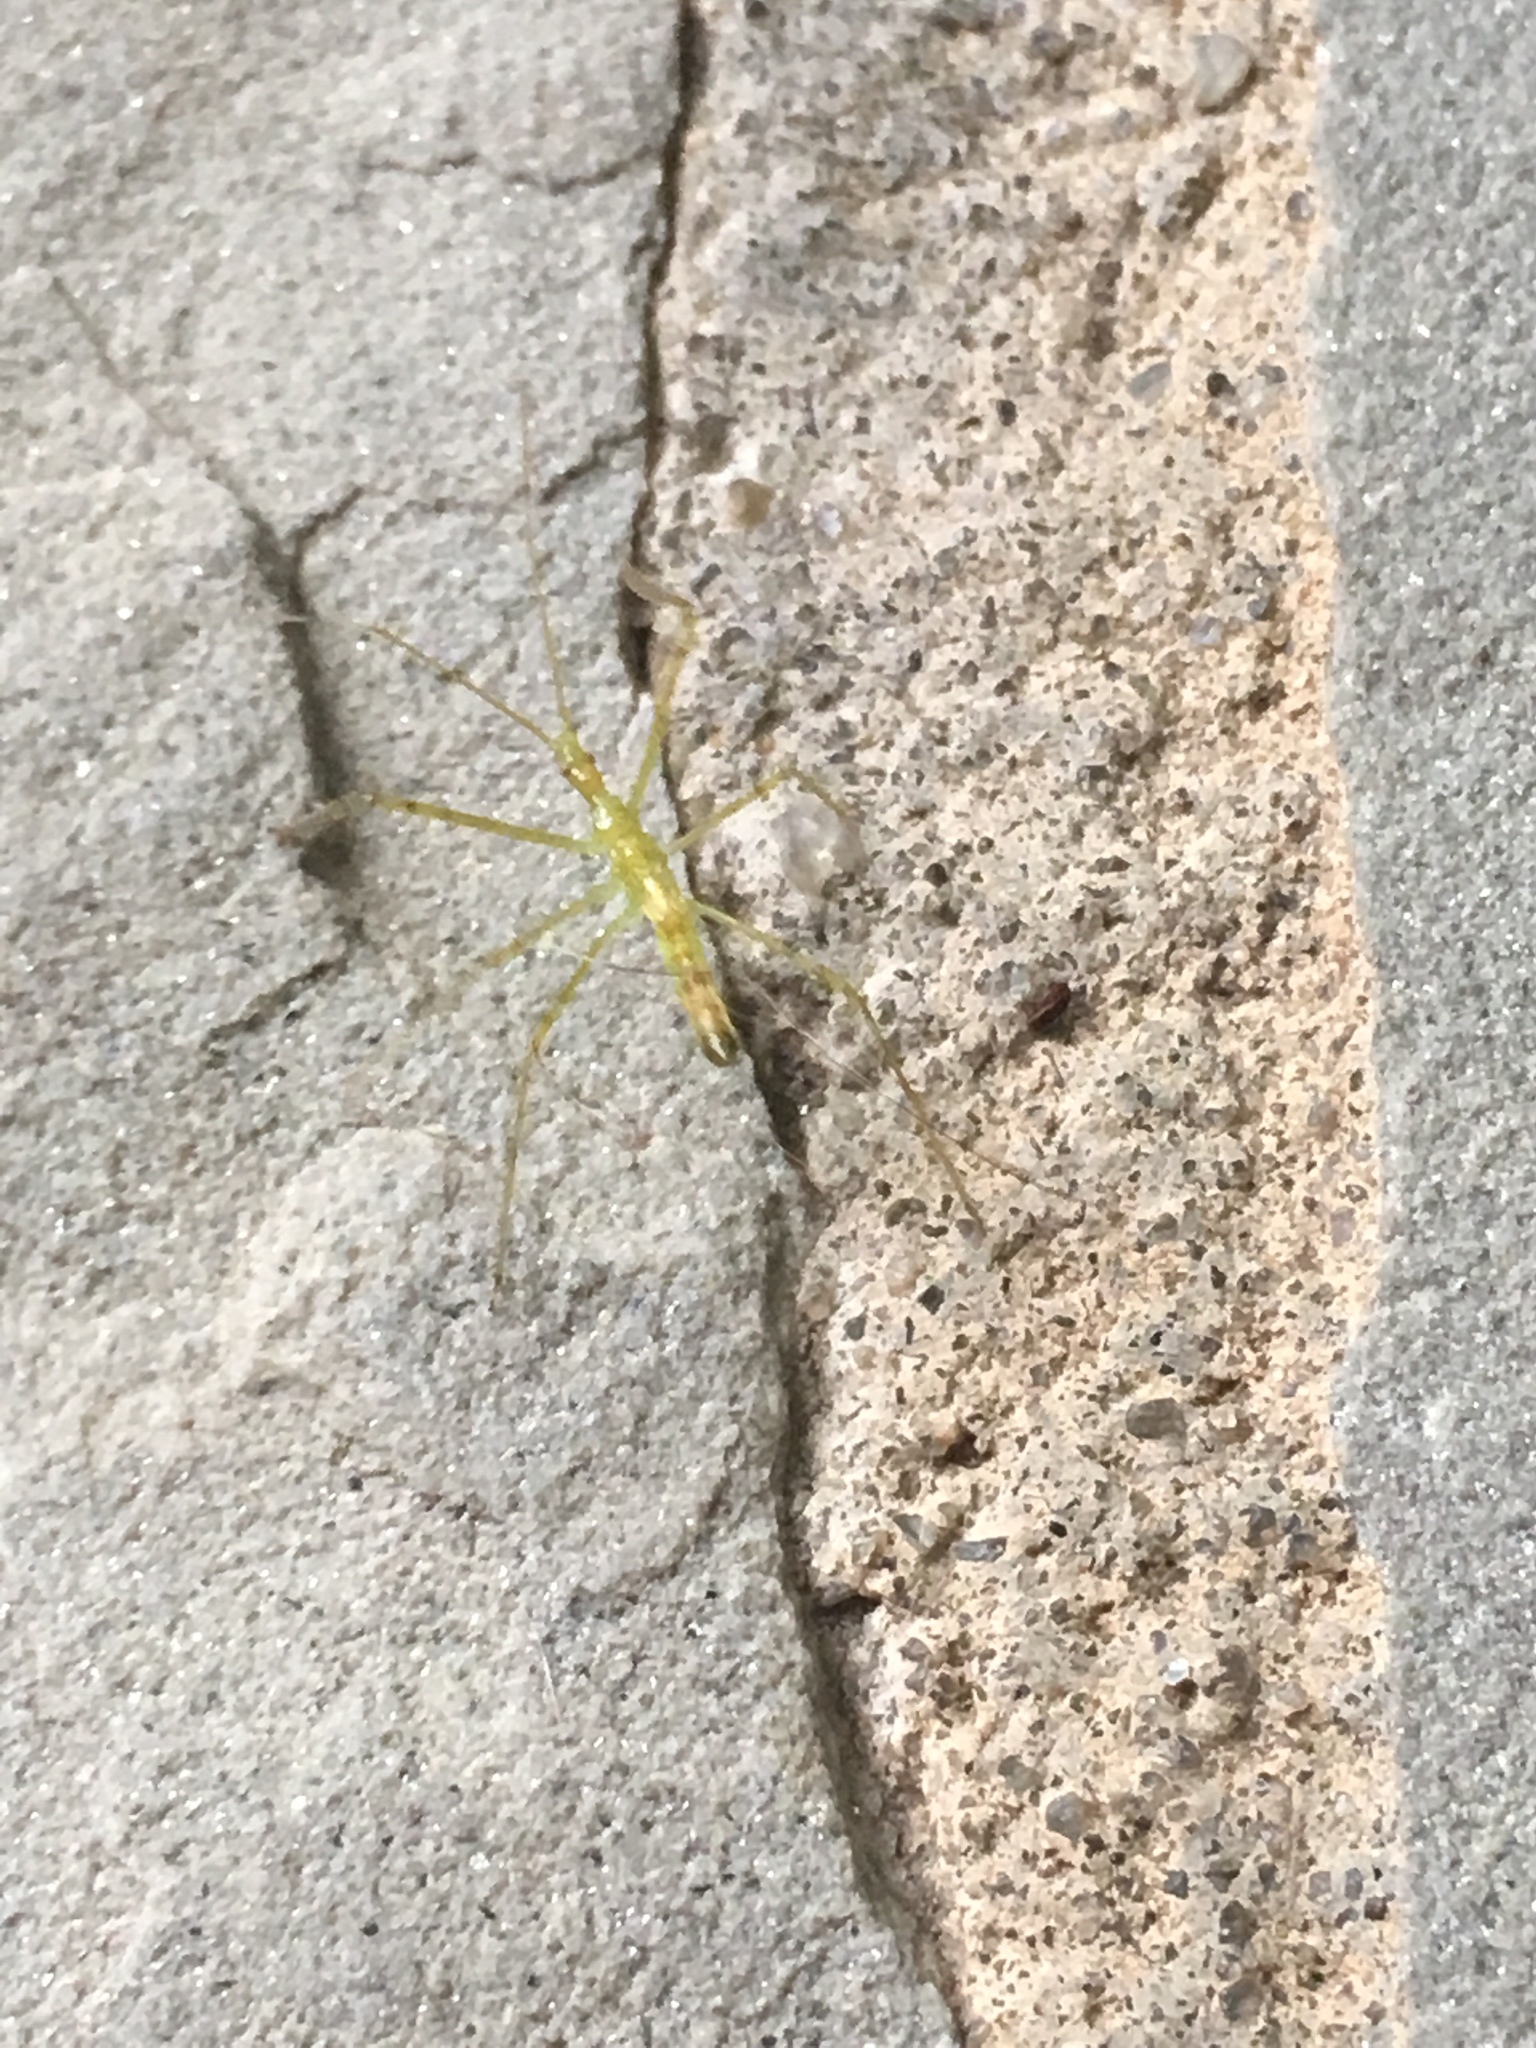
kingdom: Animalia
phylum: Arthropoda
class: Insecta
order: Hemiptera
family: Reduviidae
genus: Zelus
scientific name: Zelus luridus
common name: Pale green assassin bug
